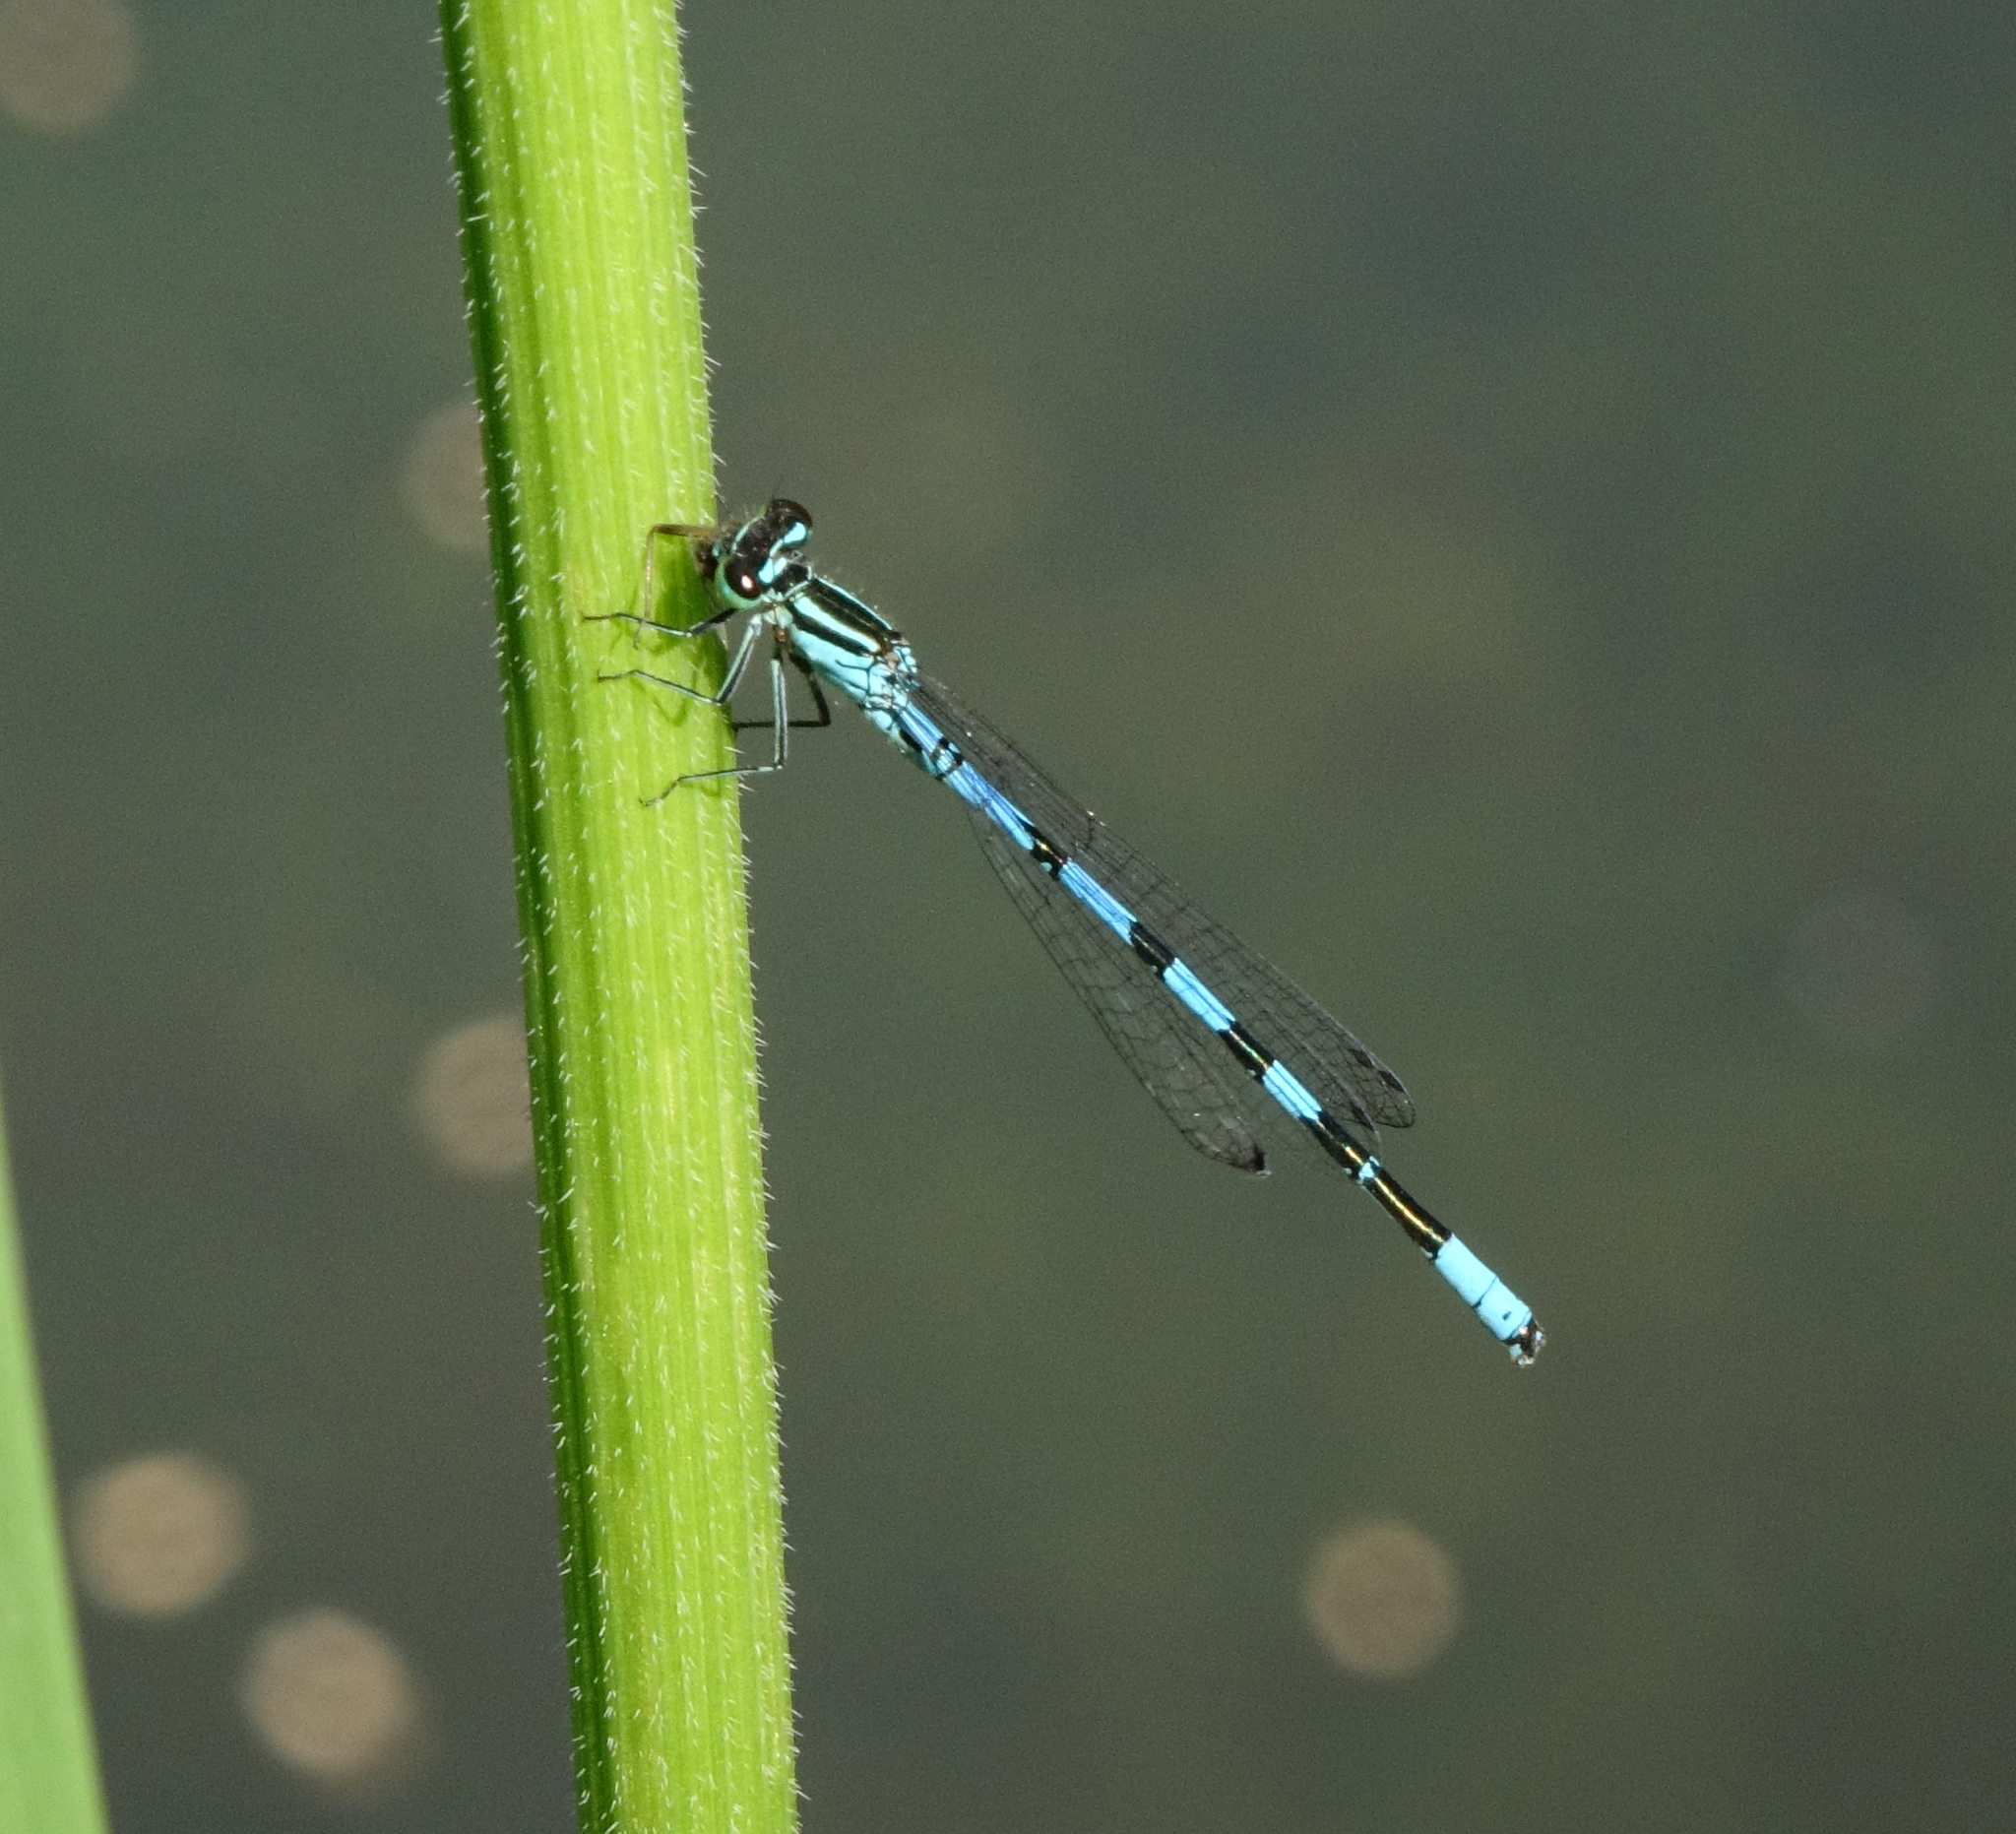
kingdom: Animalia
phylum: Arthropoda
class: Insecta
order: Odonata
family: Coenagrionidae
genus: Coenagrion
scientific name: Coenagrion hastulatum
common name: Spearhead bluet
